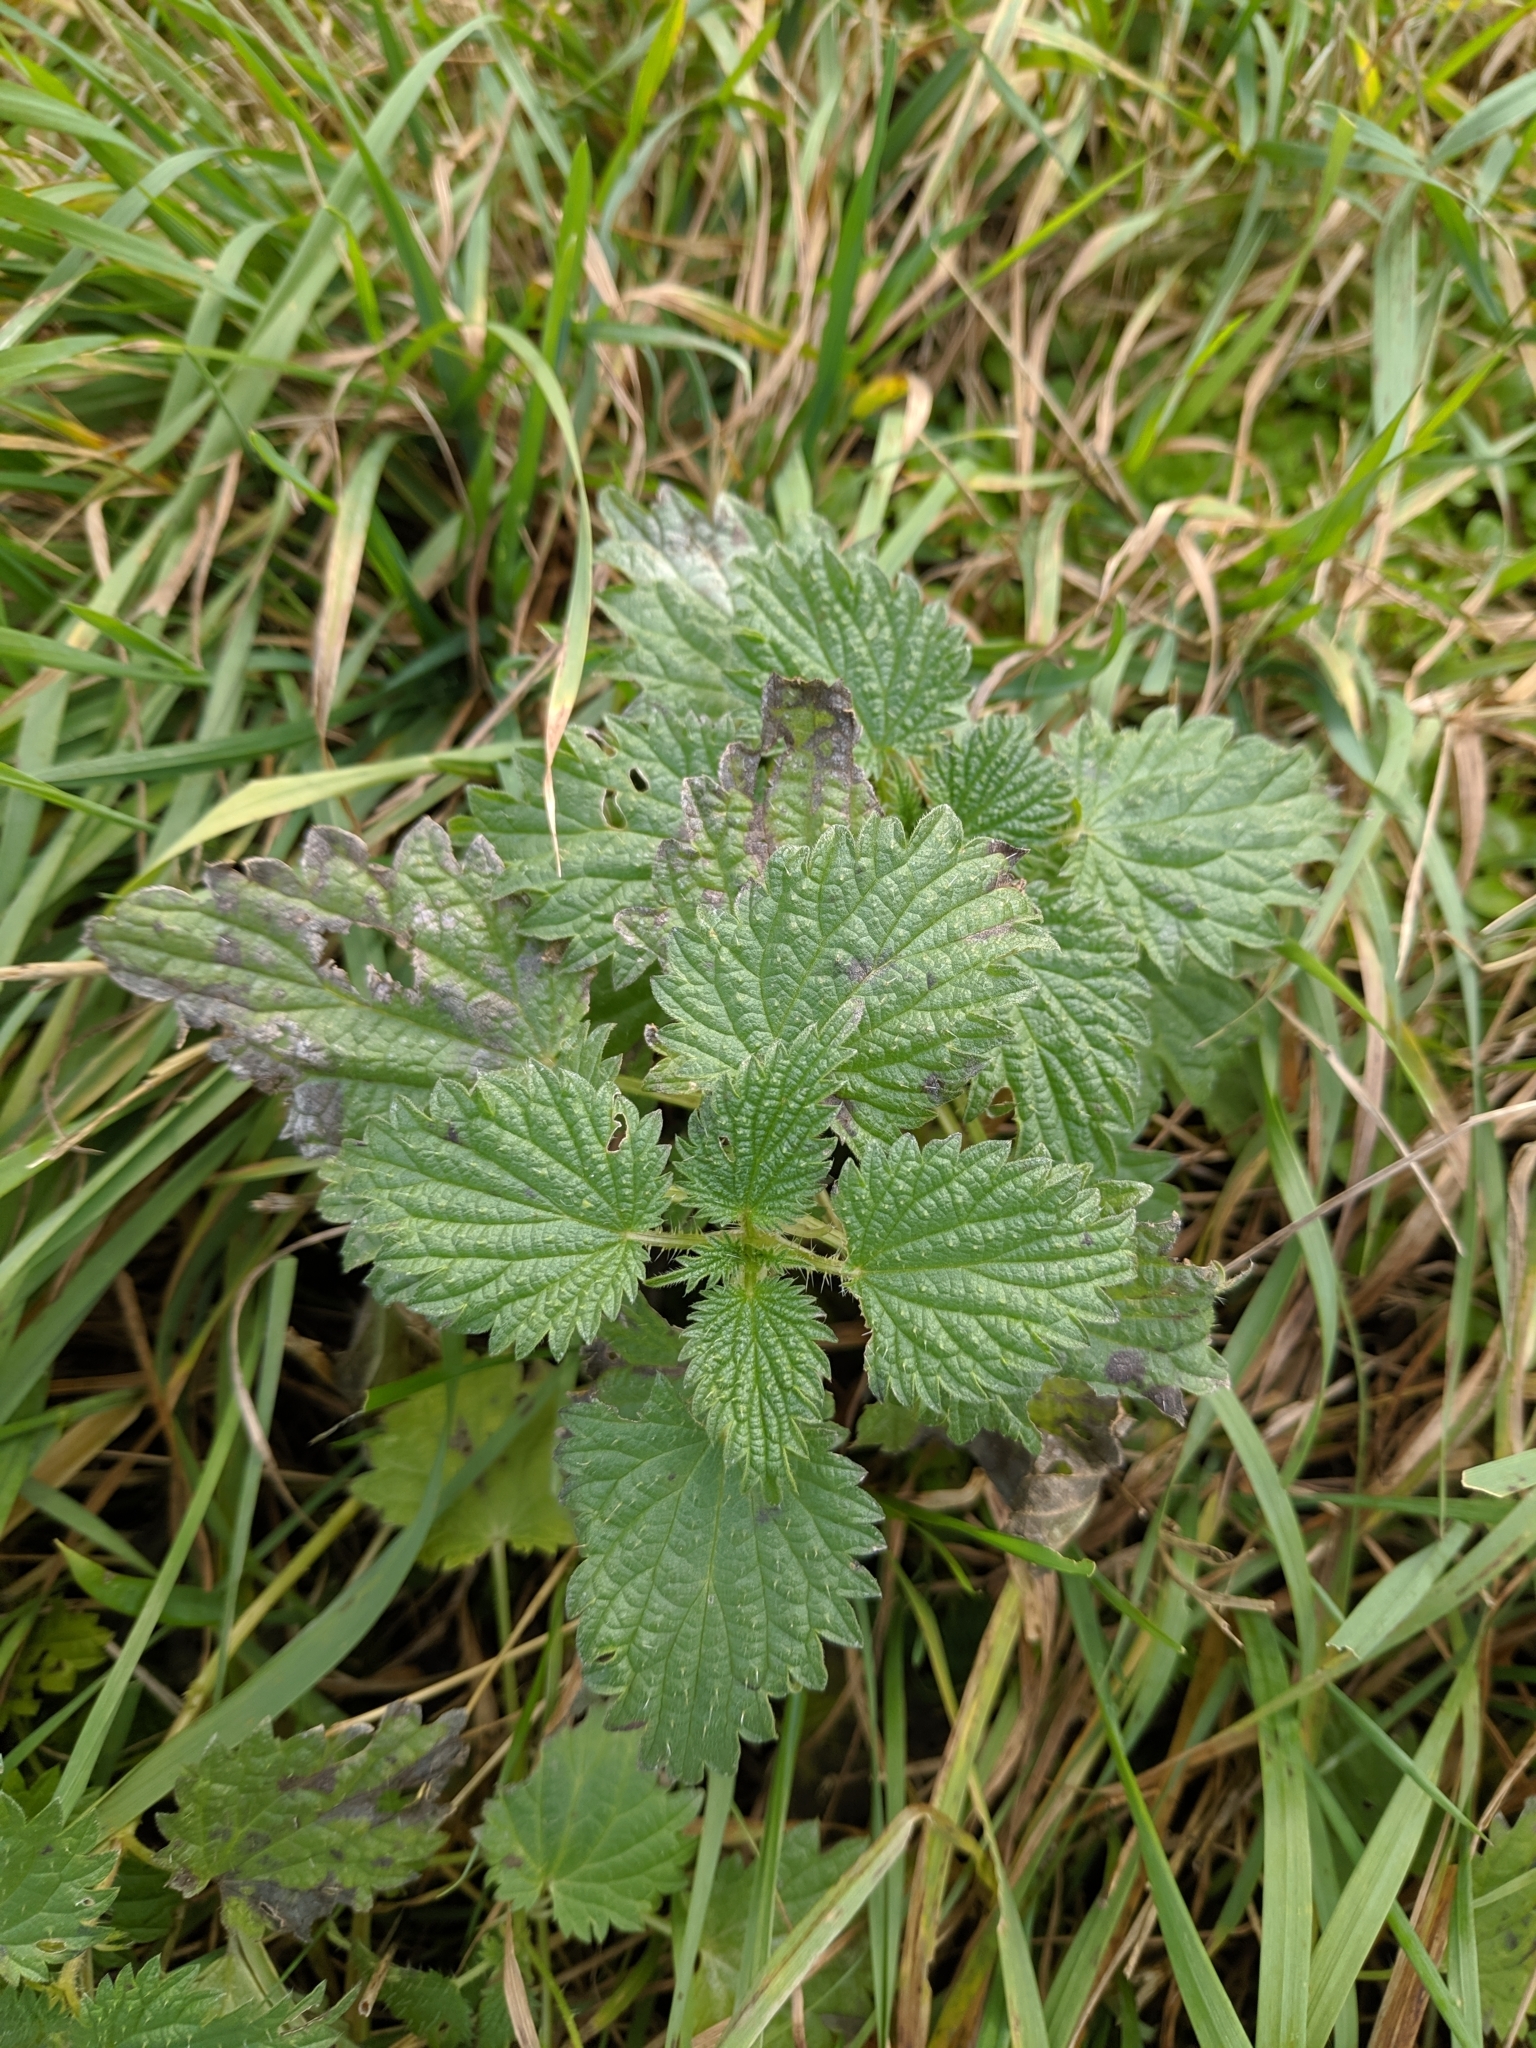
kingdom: Plantae
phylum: Tracheophyta
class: Magnoliopsida
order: Rosales
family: Urticaceae
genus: Urtica
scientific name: Urtica dioica
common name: Common nettle
